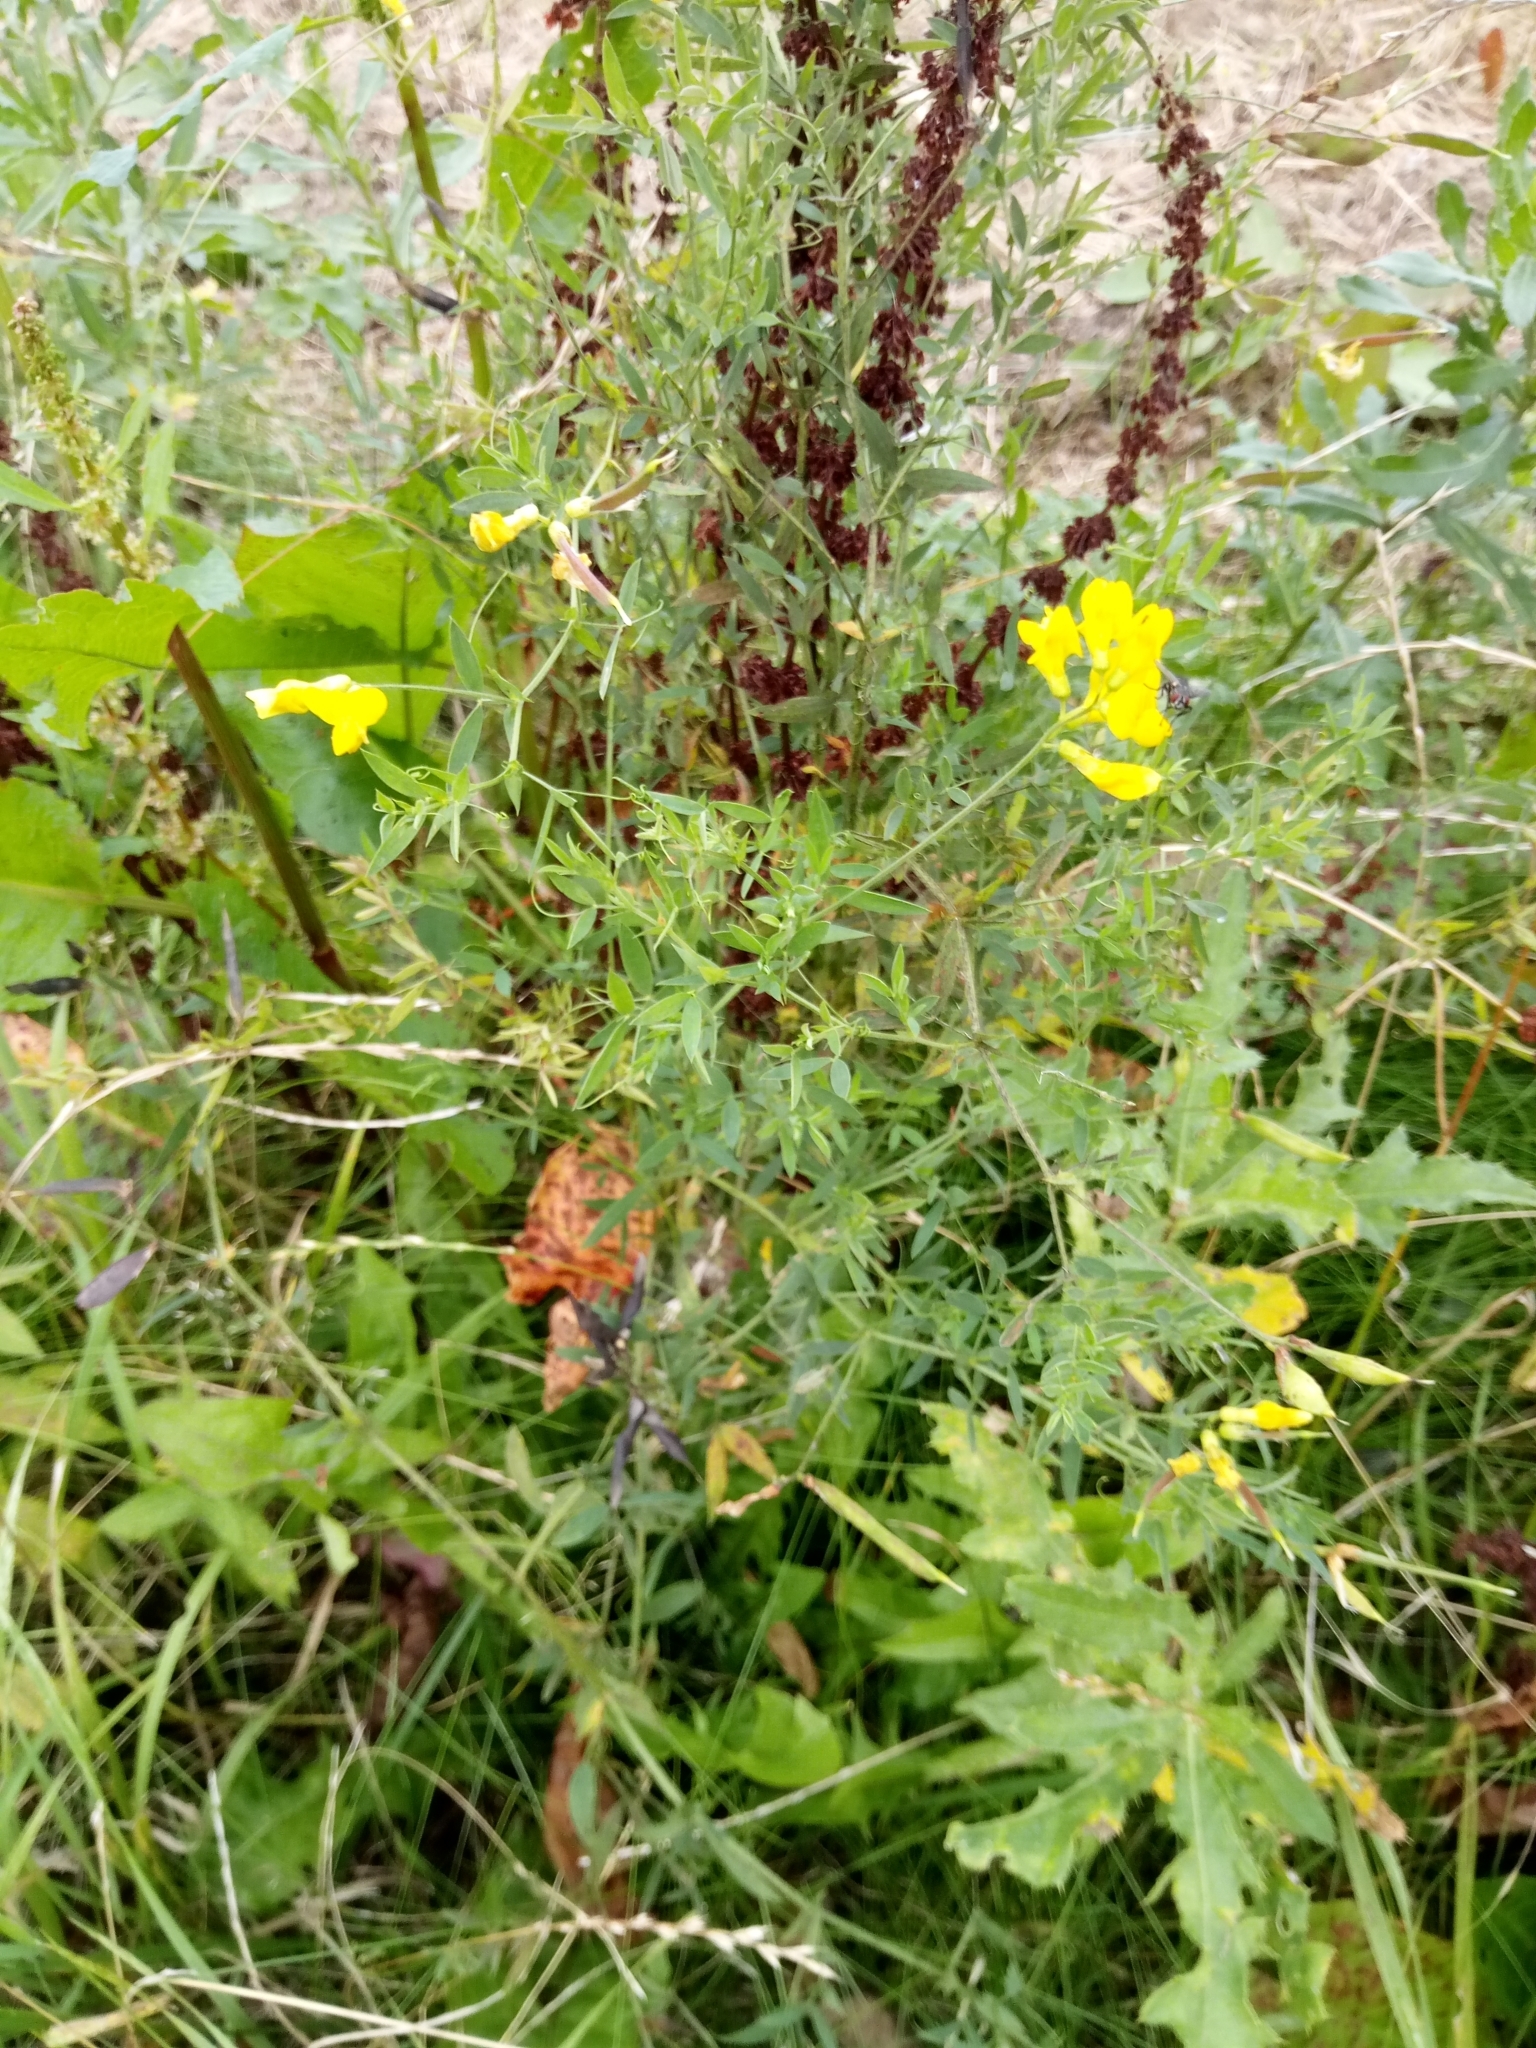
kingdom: Plantae
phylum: Tracheophyta
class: Magnoliopsida
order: Fabales
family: Fabaceae
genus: Lathyrus
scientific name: Lathyrus pratensis
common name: Meadow vetchling
